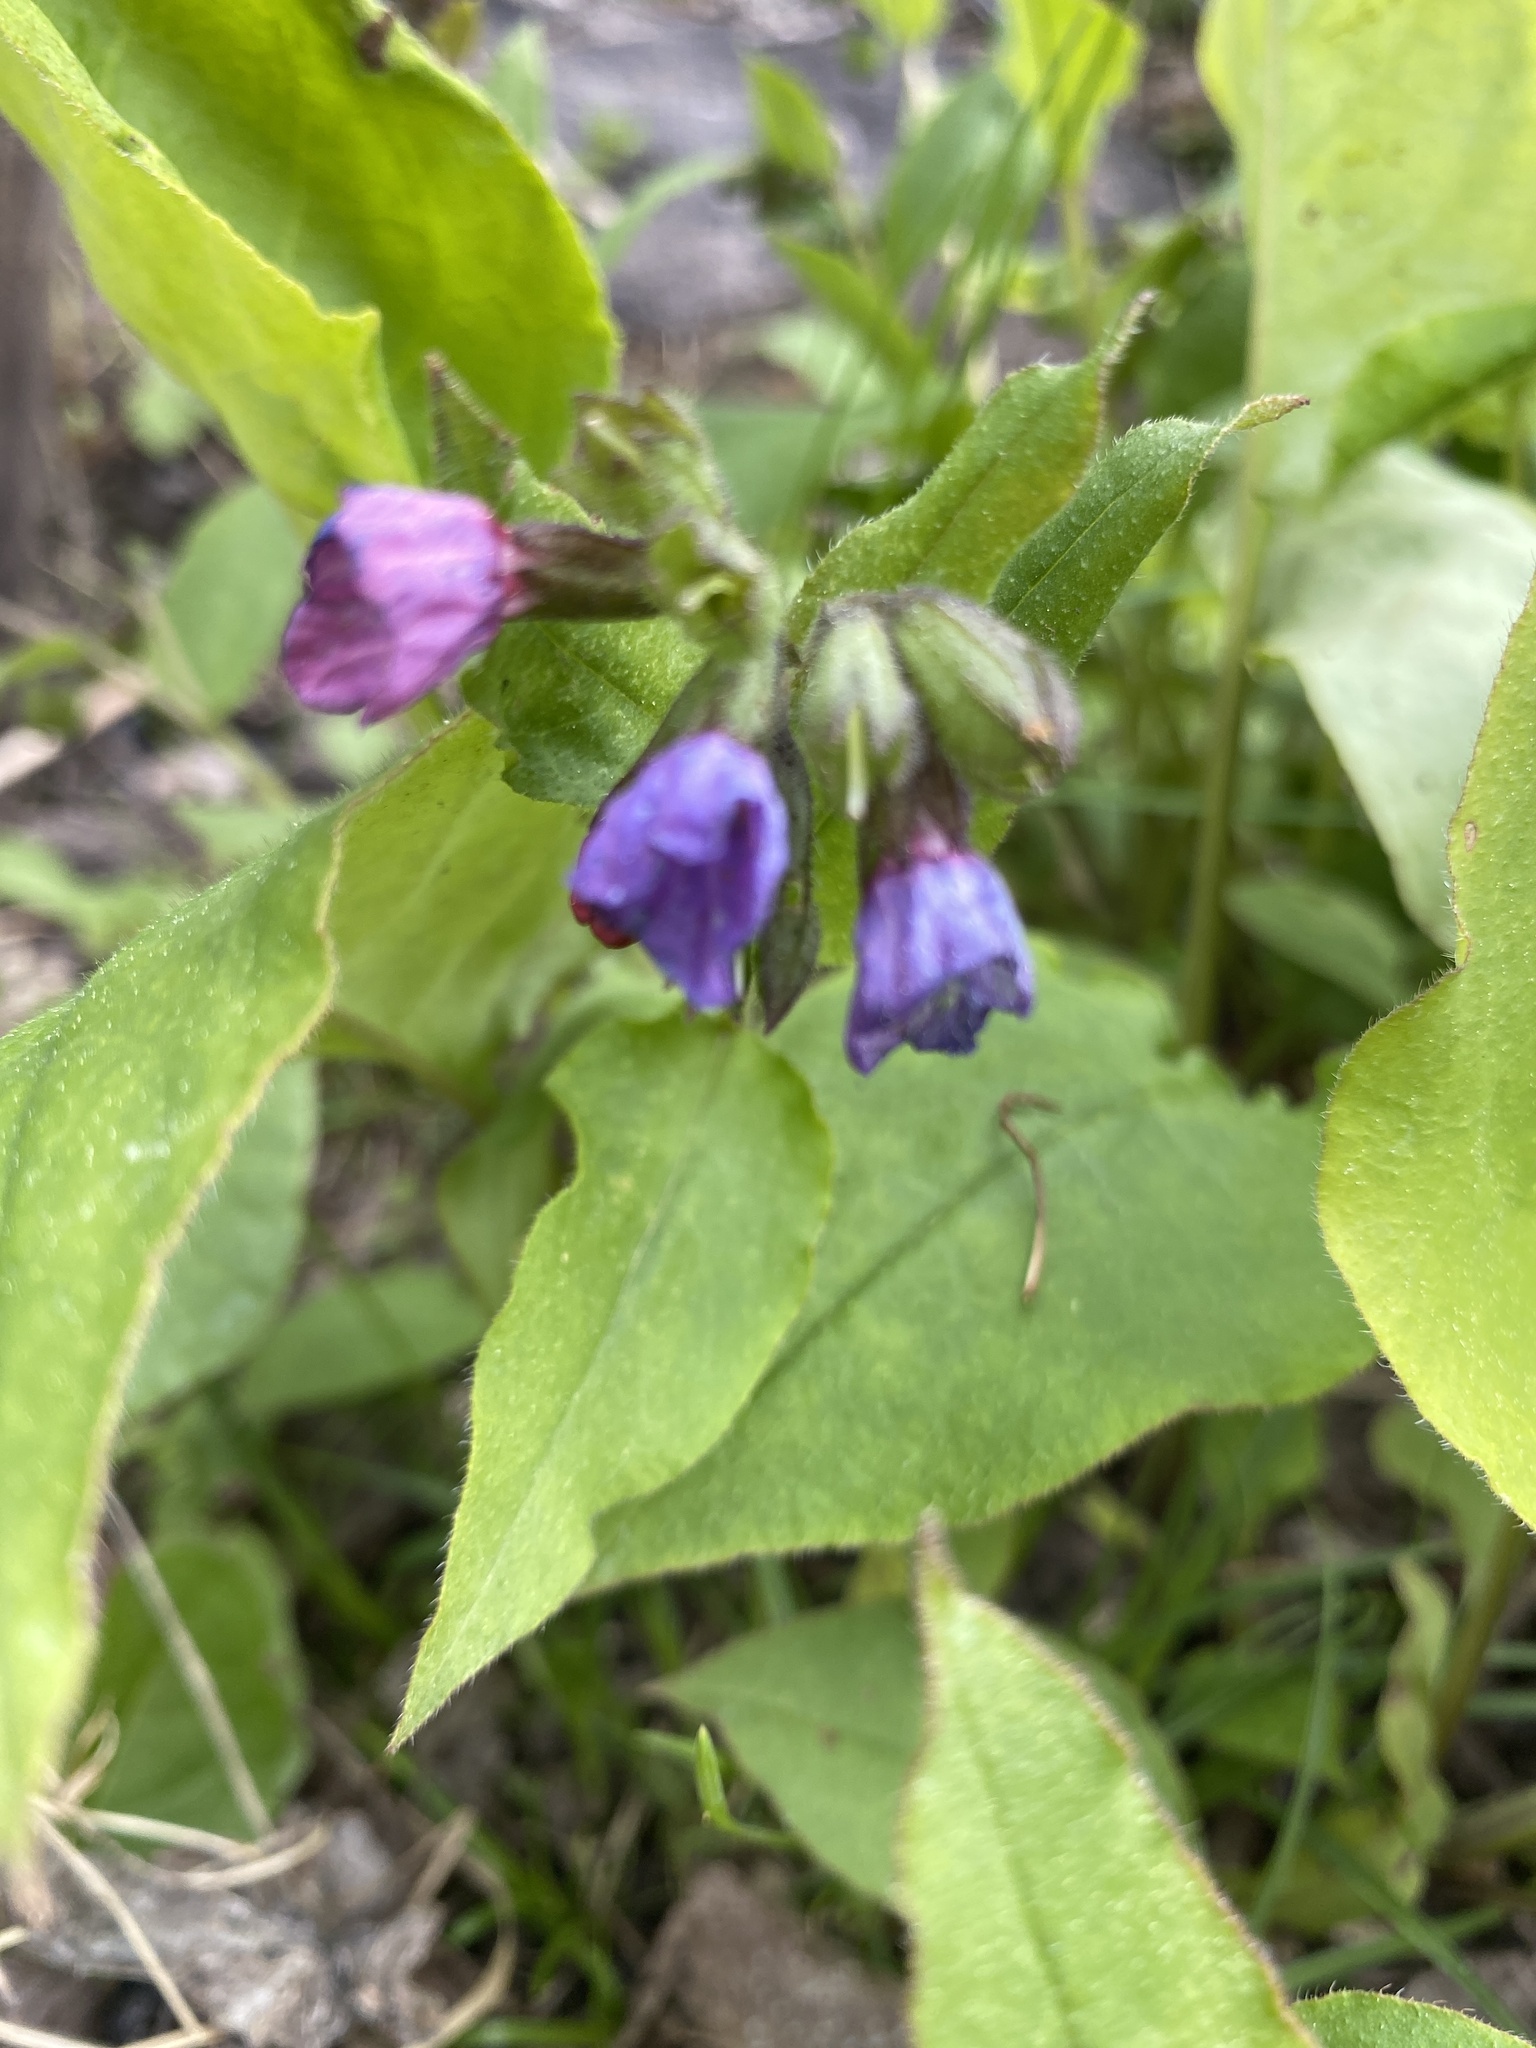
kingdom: Plantae
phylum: Tracheophyta
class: Magnoliopsida
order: Boraginales
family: Boraginaceae
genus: Pulmonaria
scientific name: Pulmonaria obscura
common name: Suffolk lungwort
